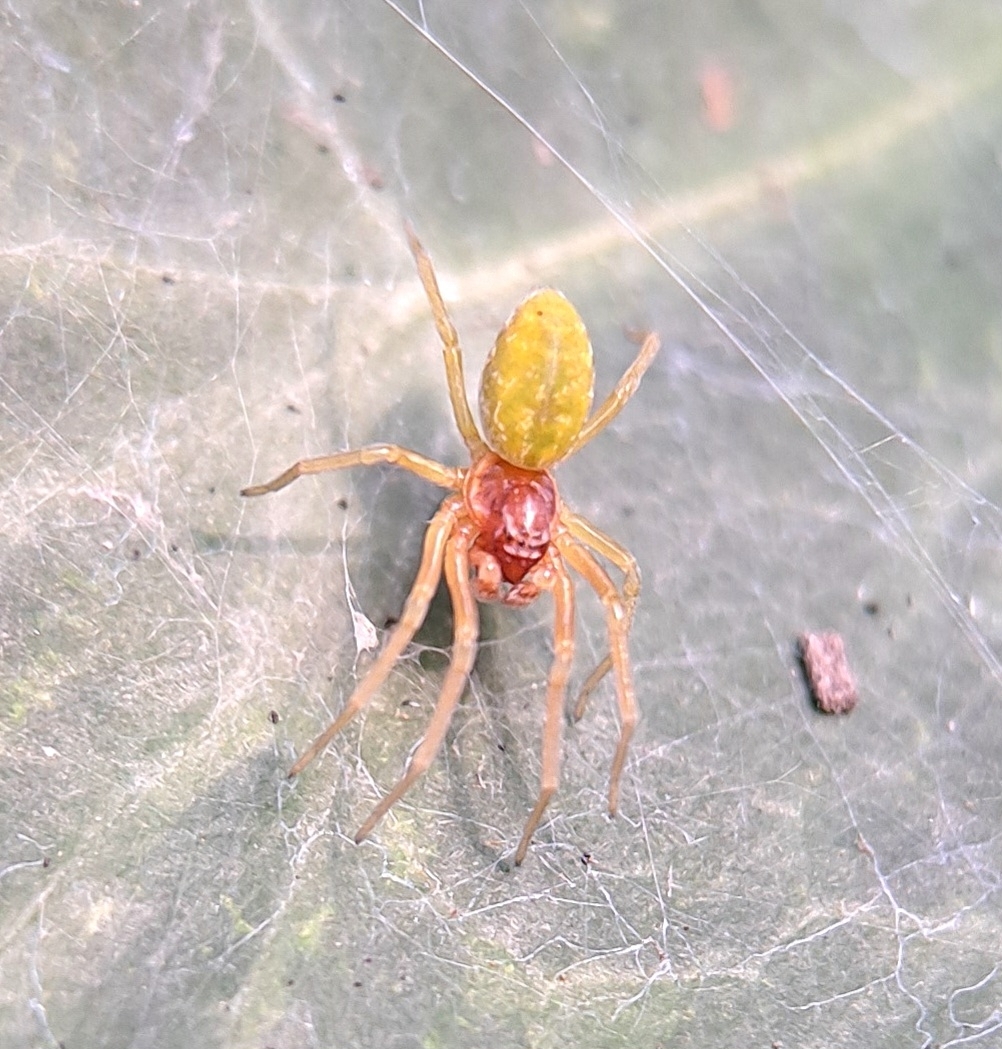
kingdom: Animalia
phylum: Arthropoda
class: Arachnida
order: Araneae
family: Dictynidae
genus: Nigma
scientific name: Nigma walckenaeri
